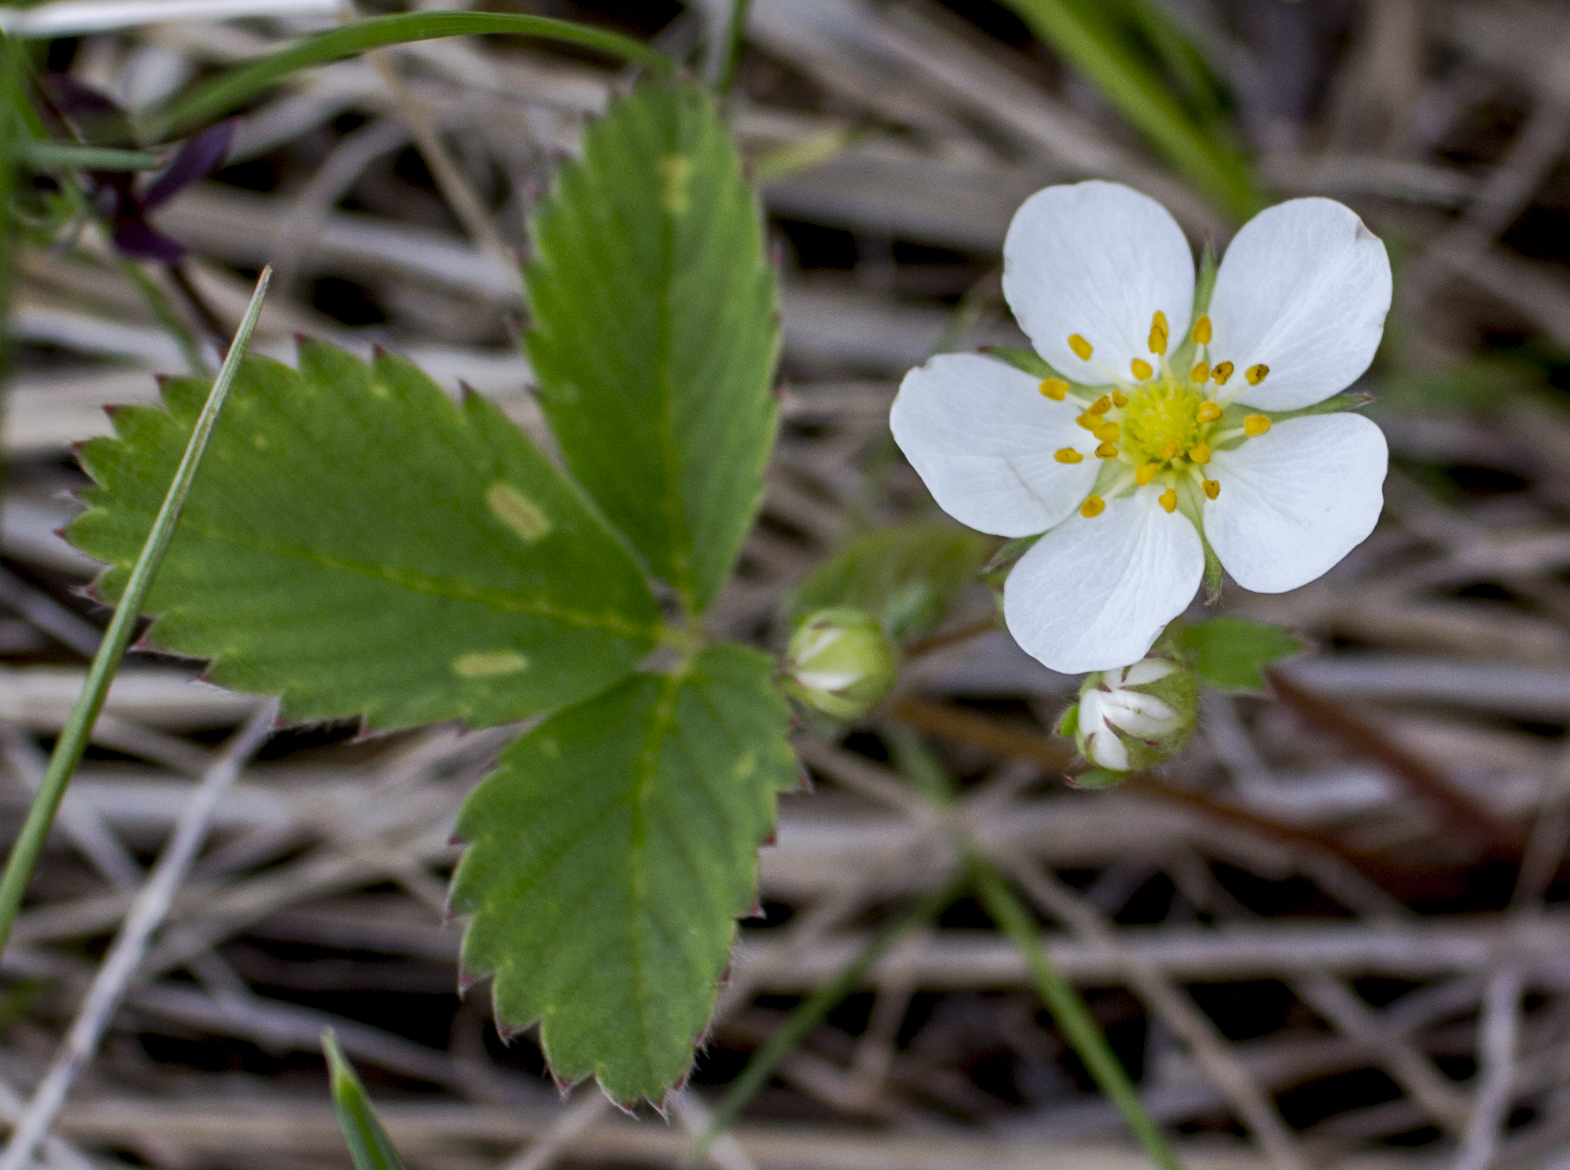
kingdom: Plantae
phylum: Tracheophyta
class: Magnoliopsida
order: Rosales
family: Rosaceae
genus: Fragaria
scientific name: Fragaria vesca
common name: Wild strawberry
